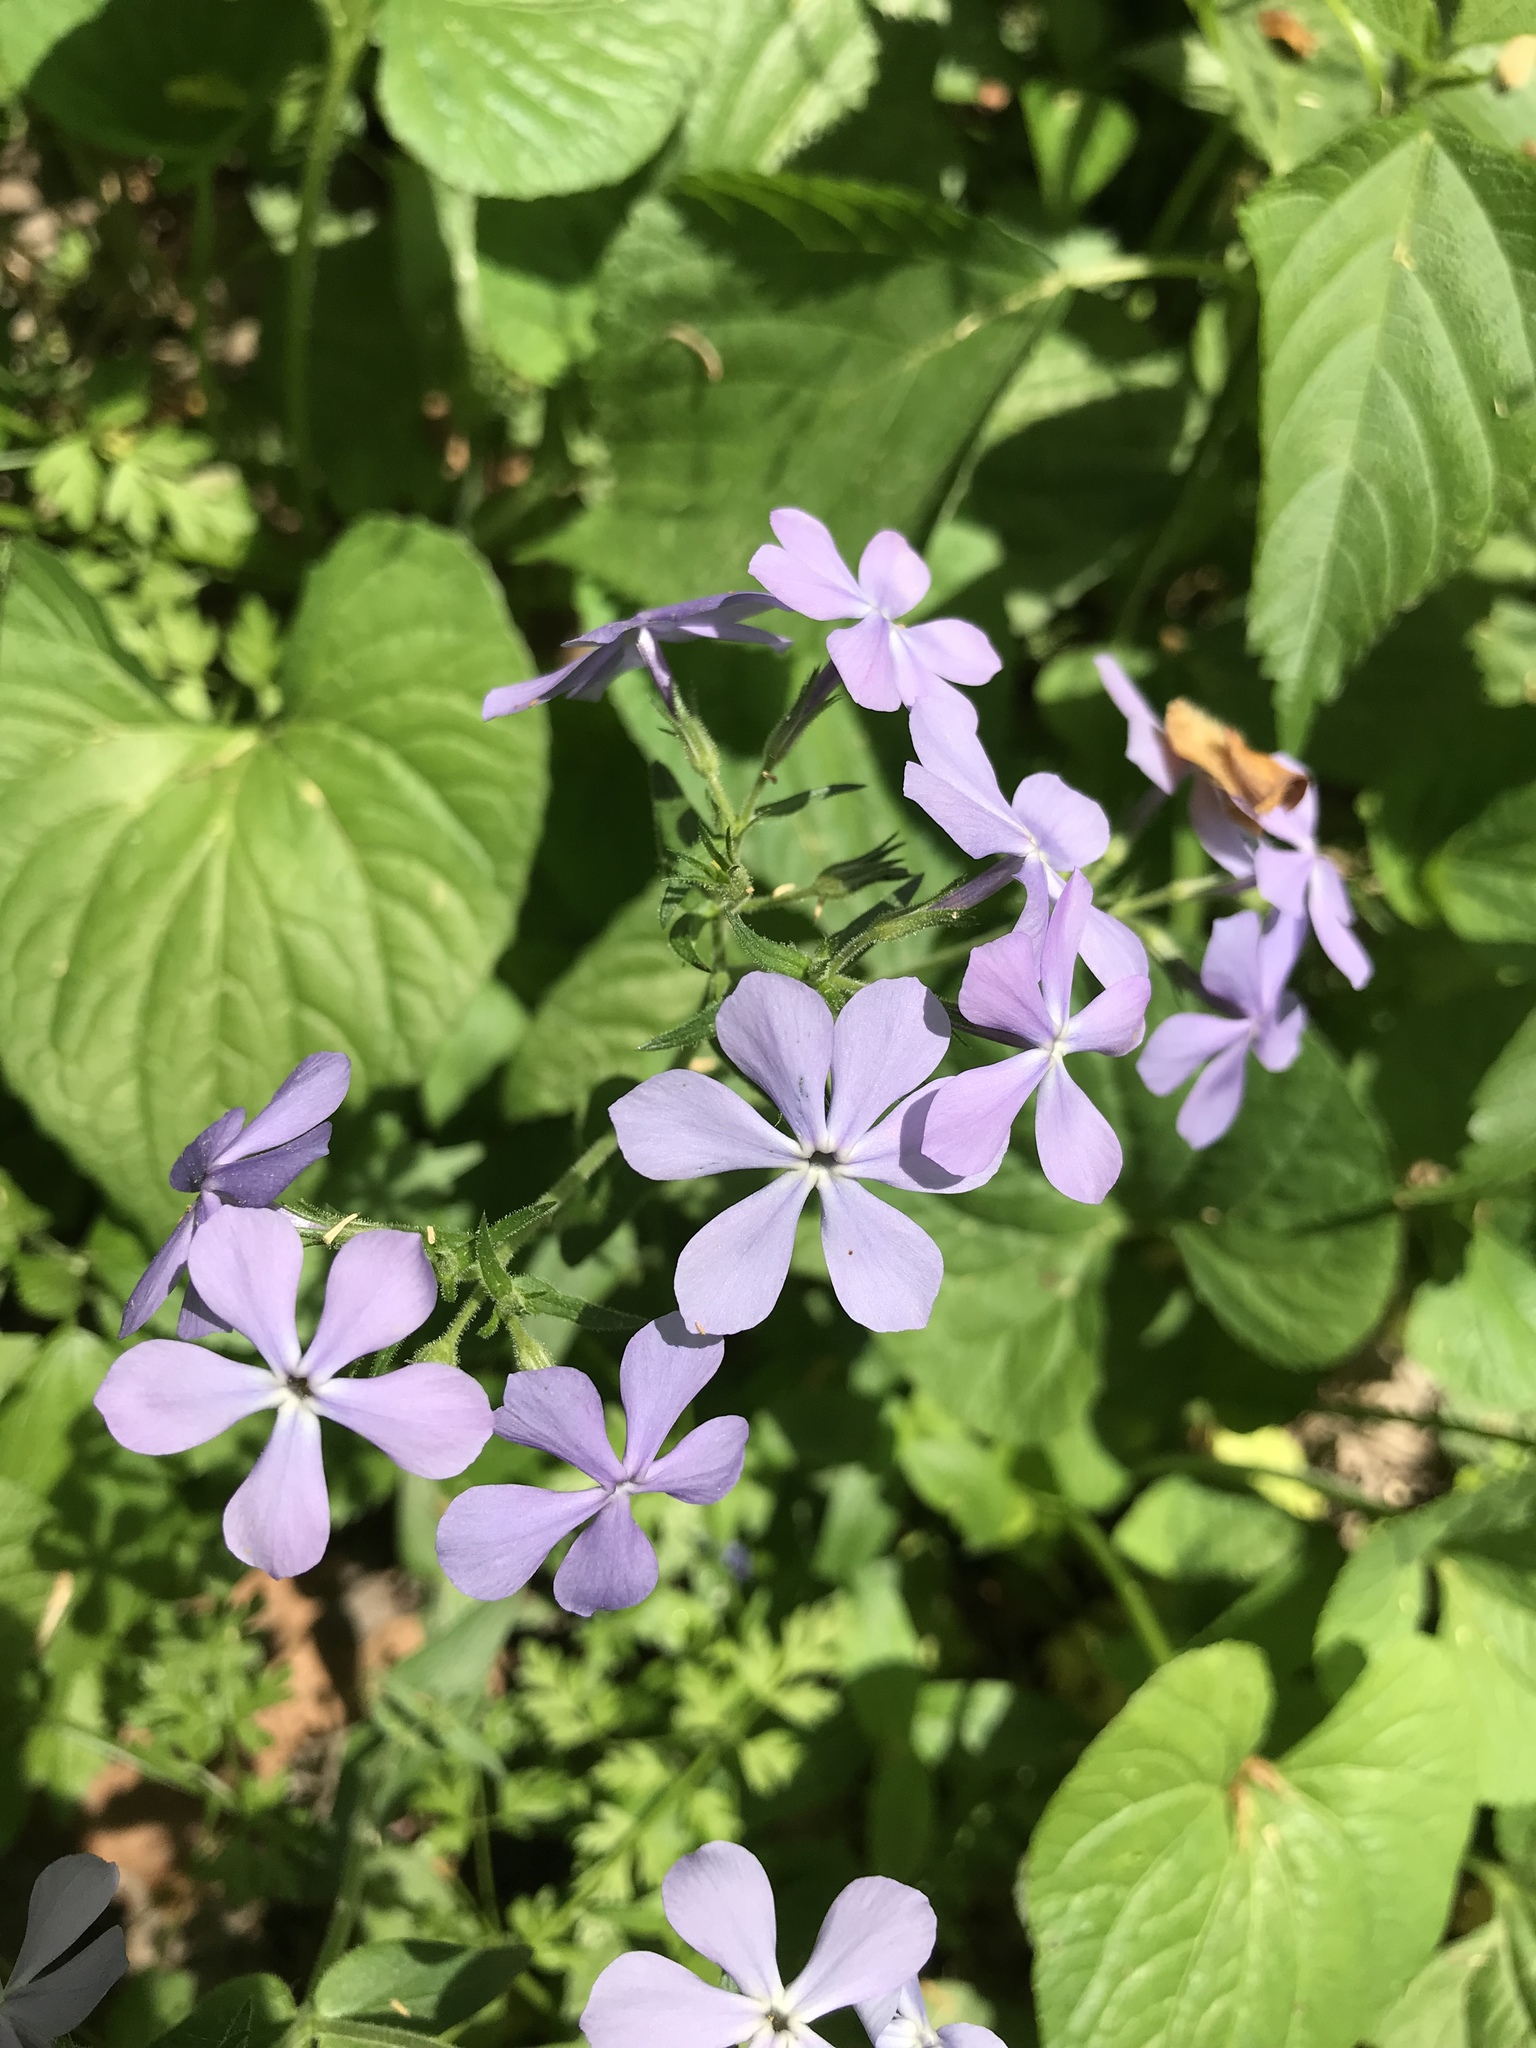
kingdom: Plantae
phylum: Tracheophyta
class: Magnoliopsida
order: Ericales
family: Polemoniaceae
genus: Phlox
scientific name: Phlox divaricata
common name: Blue phlox
